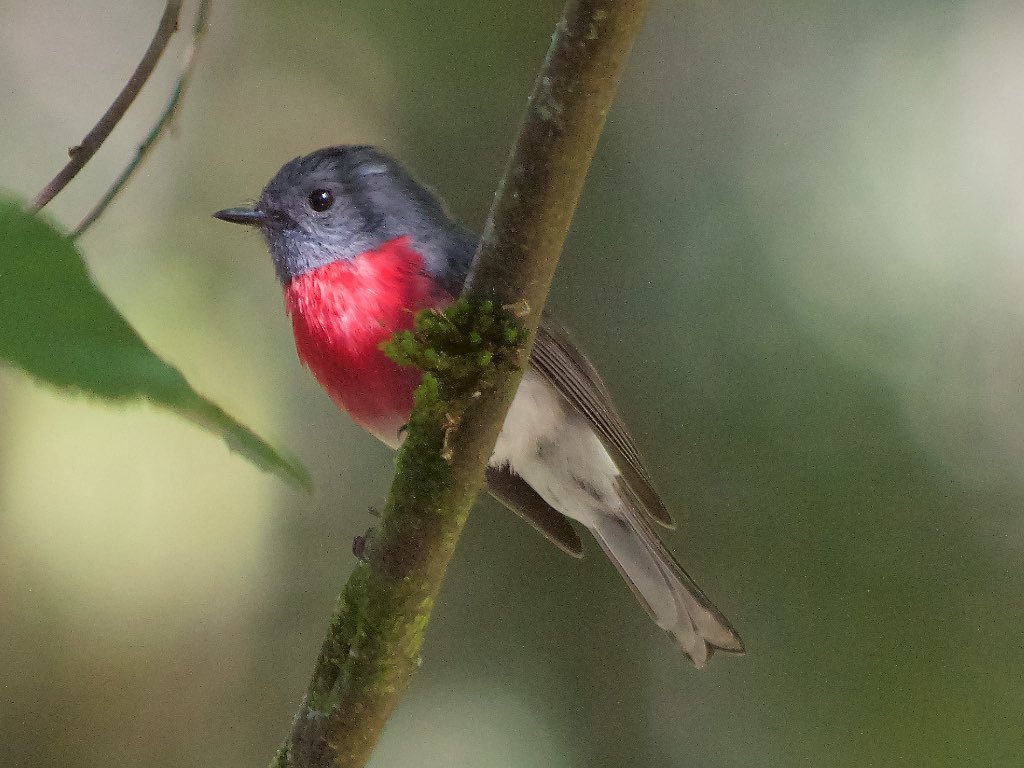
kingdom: Animalia
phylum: Chordata
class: Aves
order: Passeriformes
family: Petroicidae
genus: Petroica
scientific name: Petroica rosea
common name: Rose robin
